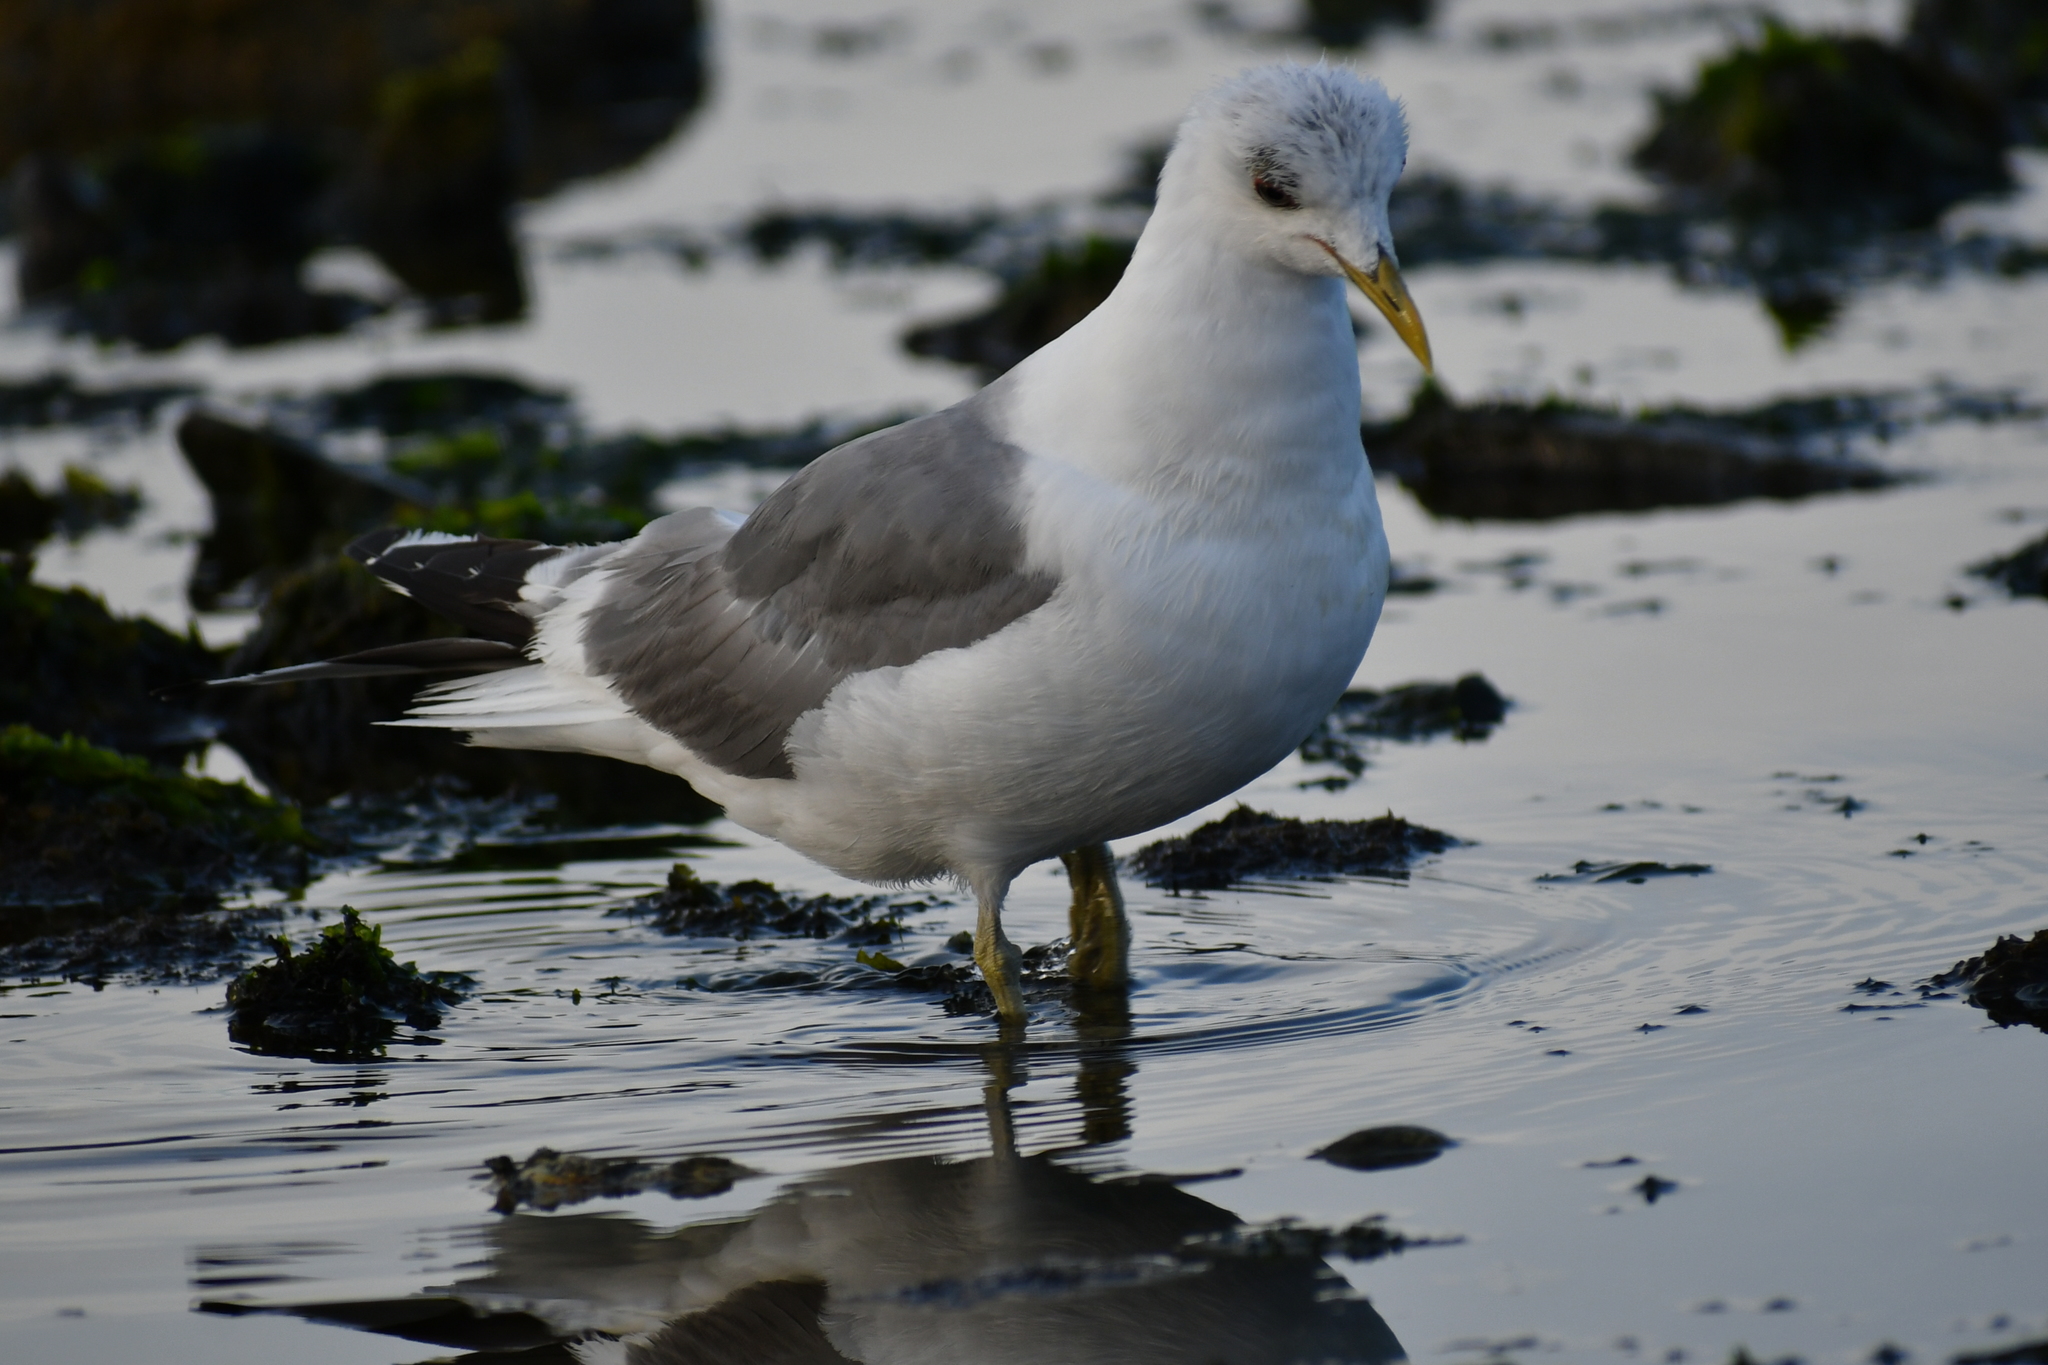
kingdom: Animalia
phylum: Chordata
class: Aves
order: Charadriiformes
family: Laridae
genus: Larus
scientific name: Larus brachyrhynchus
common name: Short-billed gull
